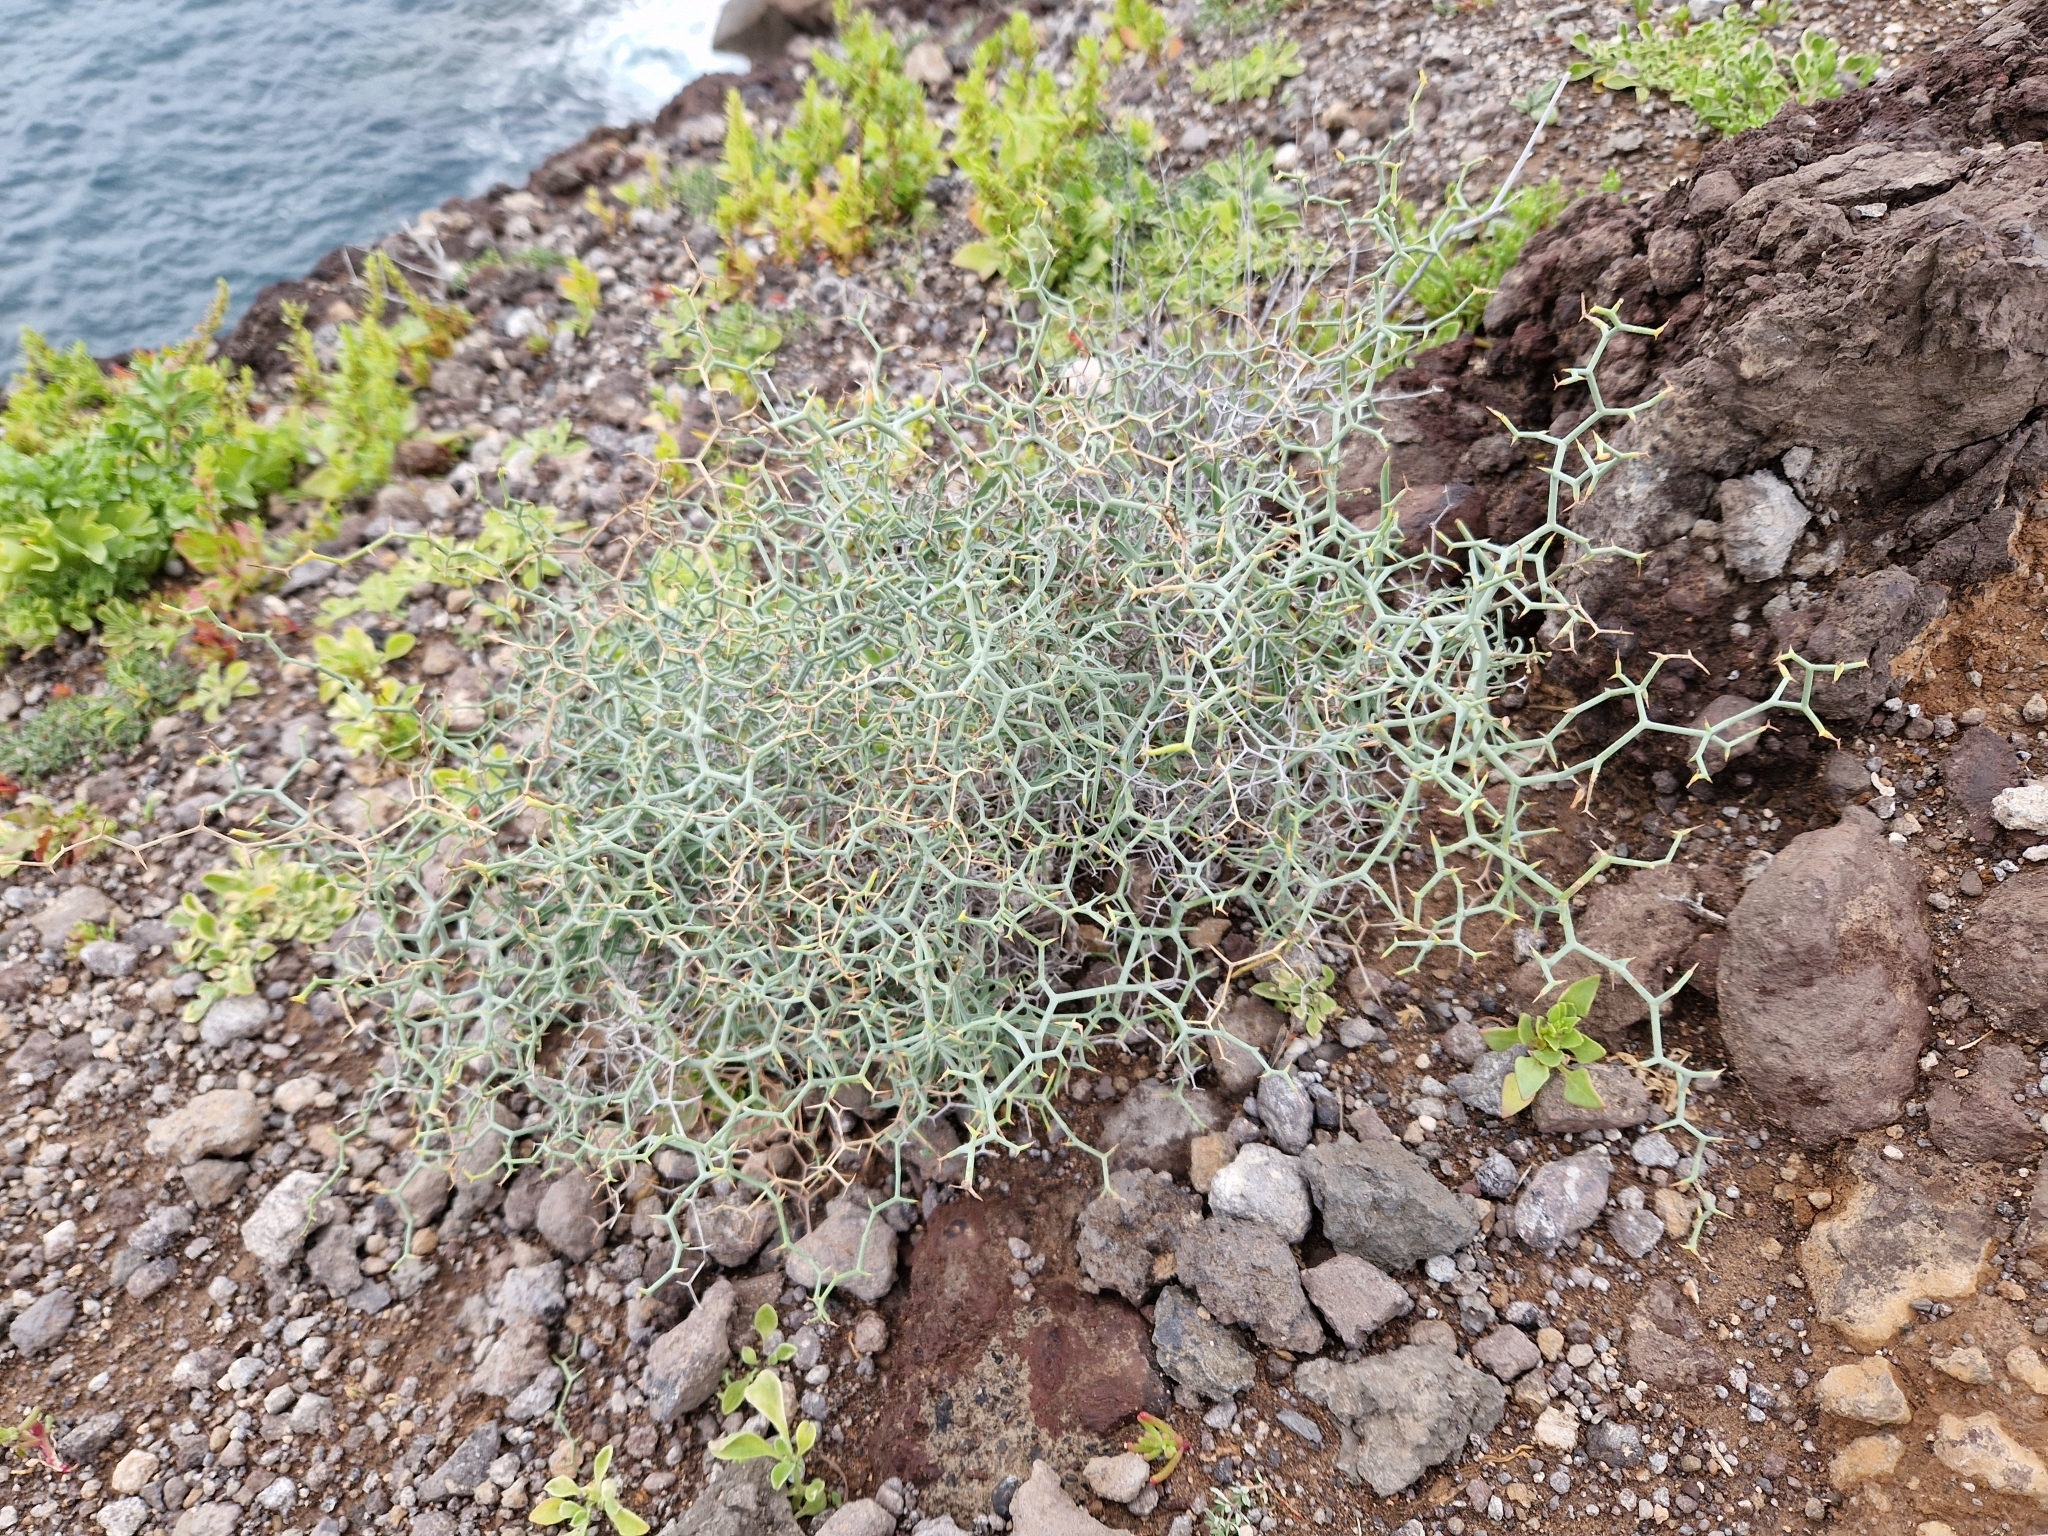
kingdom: Plantae
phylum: Tracheophyta
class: Magnoliopsida
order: Asterales
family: Asteraceae
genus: Launaea
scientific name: Launaea arborescens
